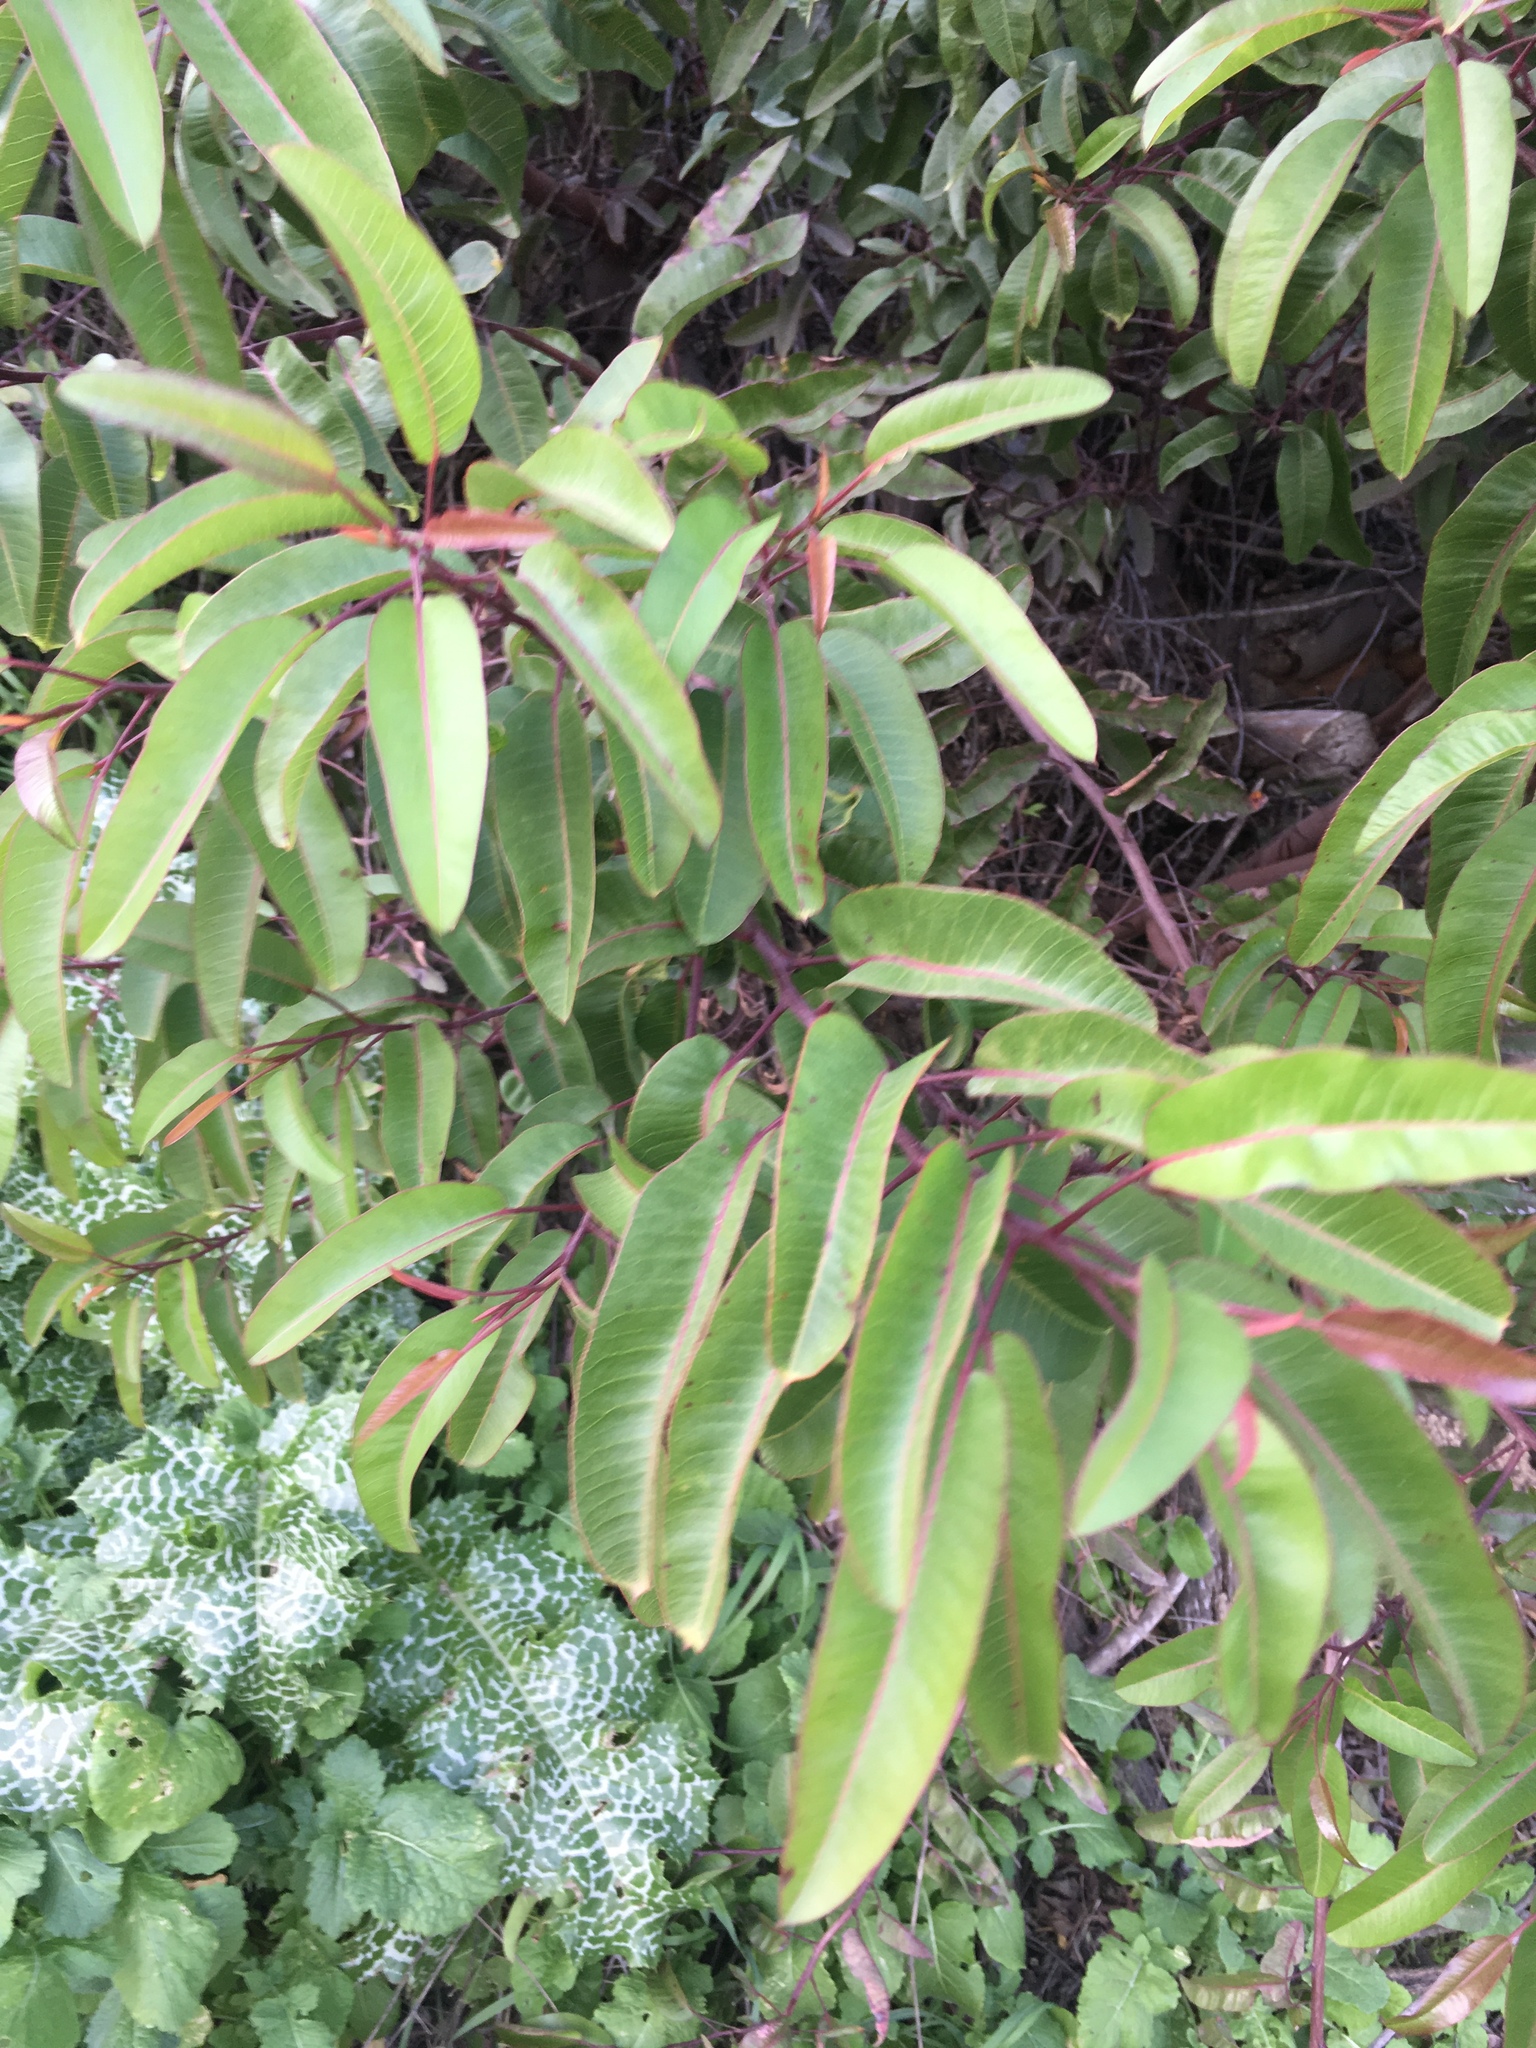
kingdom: Plantae
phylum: Tracheophyta
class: Magnoliopsida
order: Sapindales
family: Anacardiaceae
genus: Malosma
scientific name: Malosma laurina
